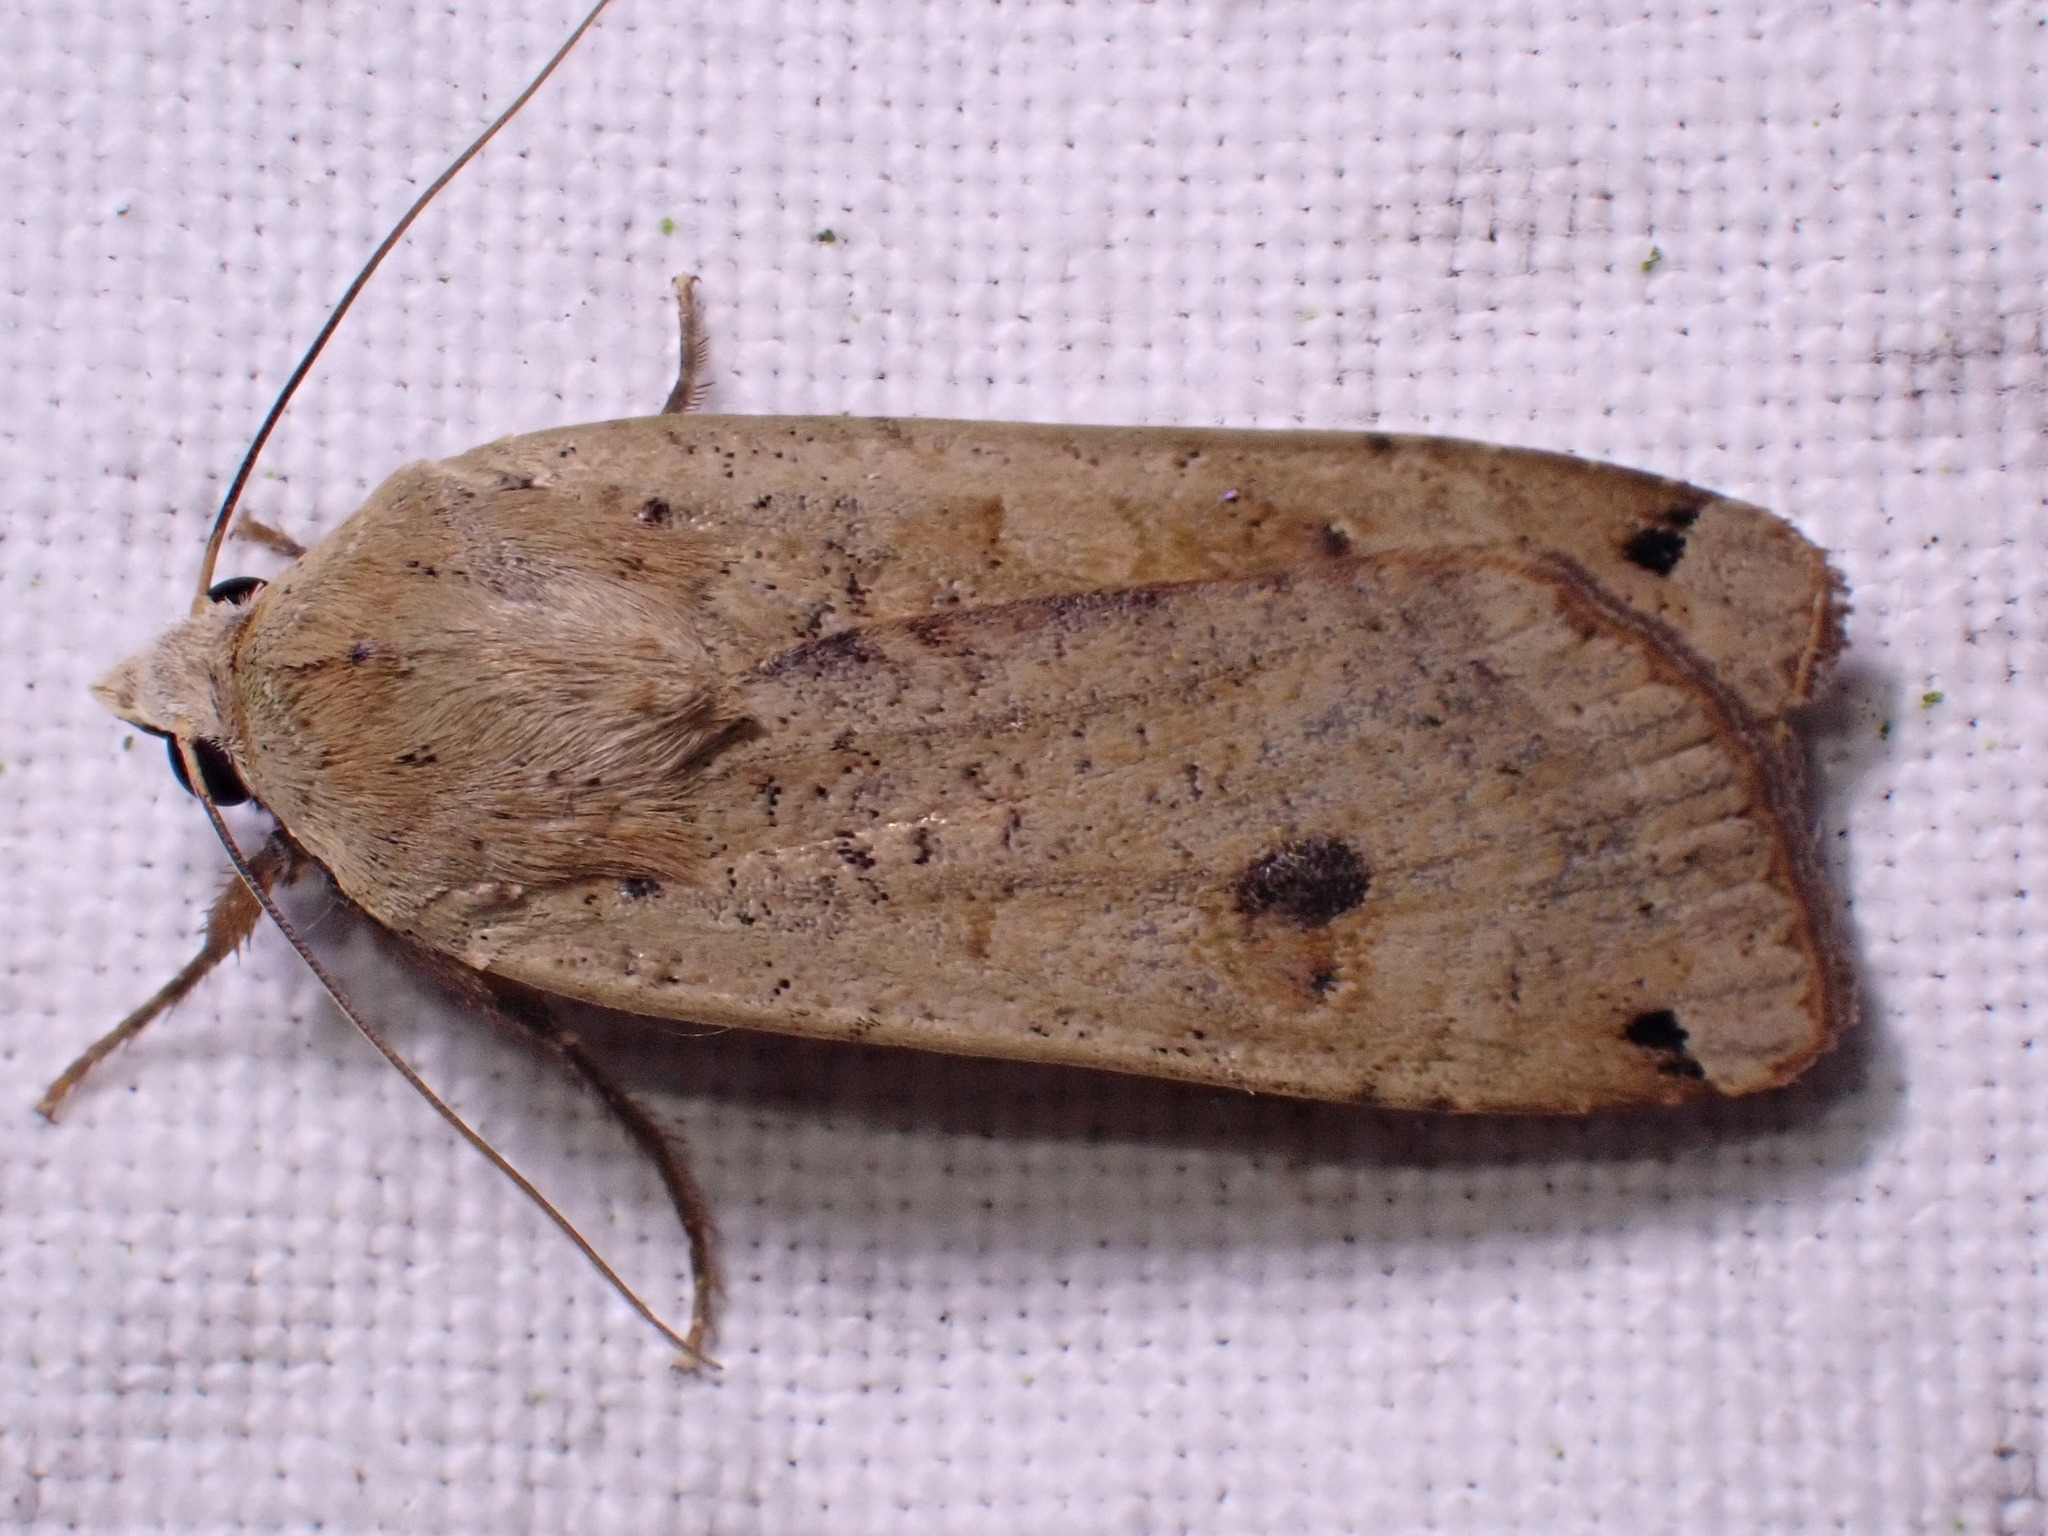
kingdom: Animalia
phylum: Arthropoda
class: Insecta
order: Lepidoptera
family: Noctuidae
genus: Noctua
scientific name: Noctua pronuba
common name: Large yellow underwing
